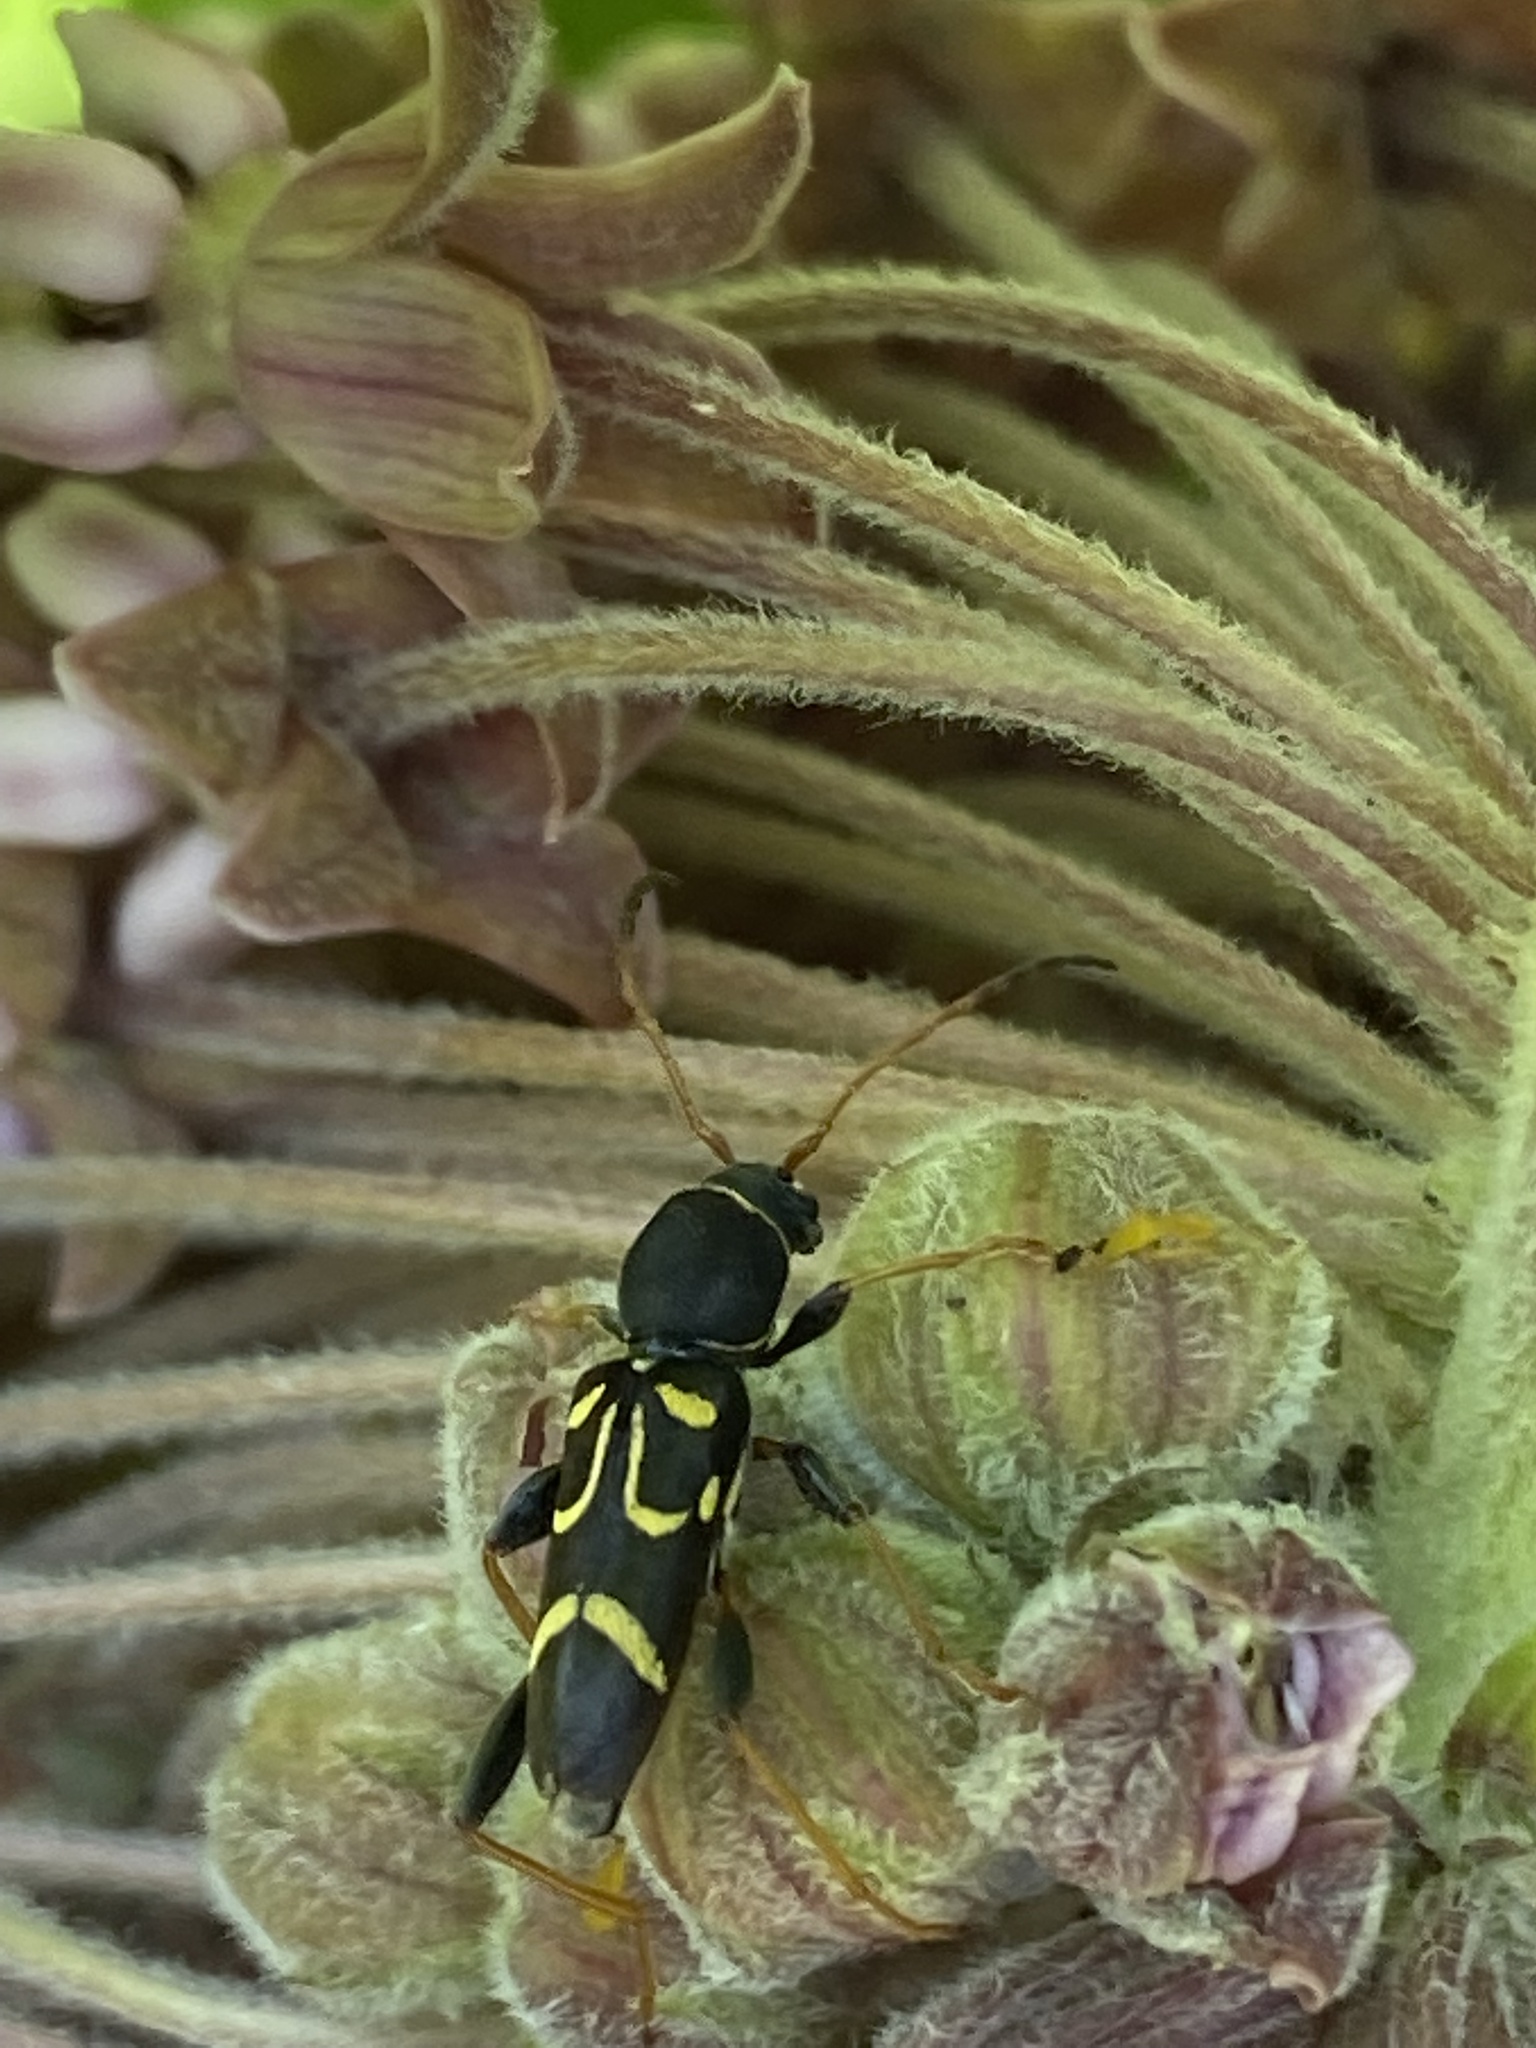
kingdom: Animalia
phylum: Arthropoda
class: Insecta
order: Coleoptera
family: Cerambycidae
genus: Clytus
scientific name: Clytus ruricola
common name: Round-necked longhorn beetle
